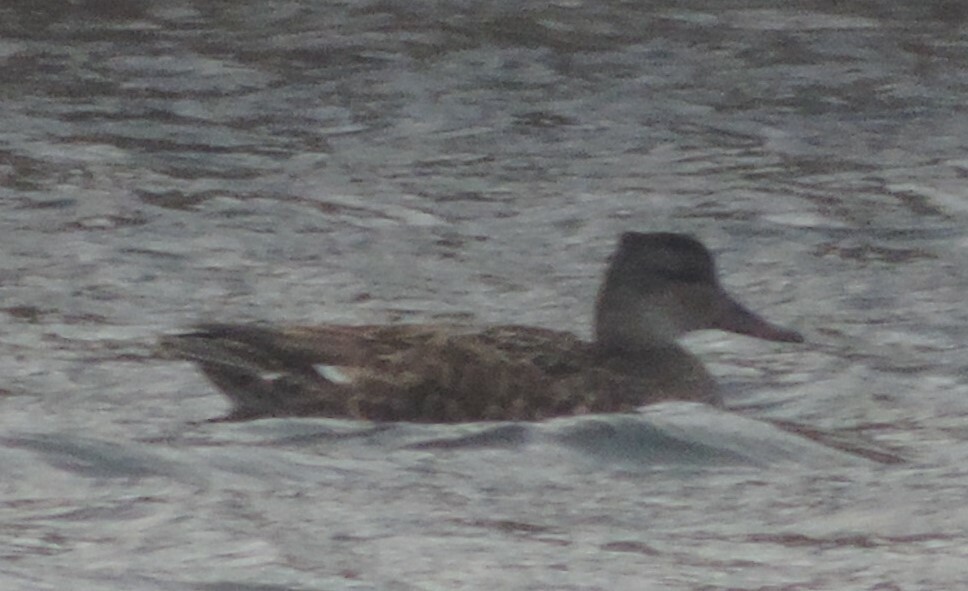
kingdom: Animalia
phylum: Chordata
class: Aves
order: Anseriformes
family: Anatidae
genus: Mareca
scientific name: Mareca strepera
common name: Gadwall
